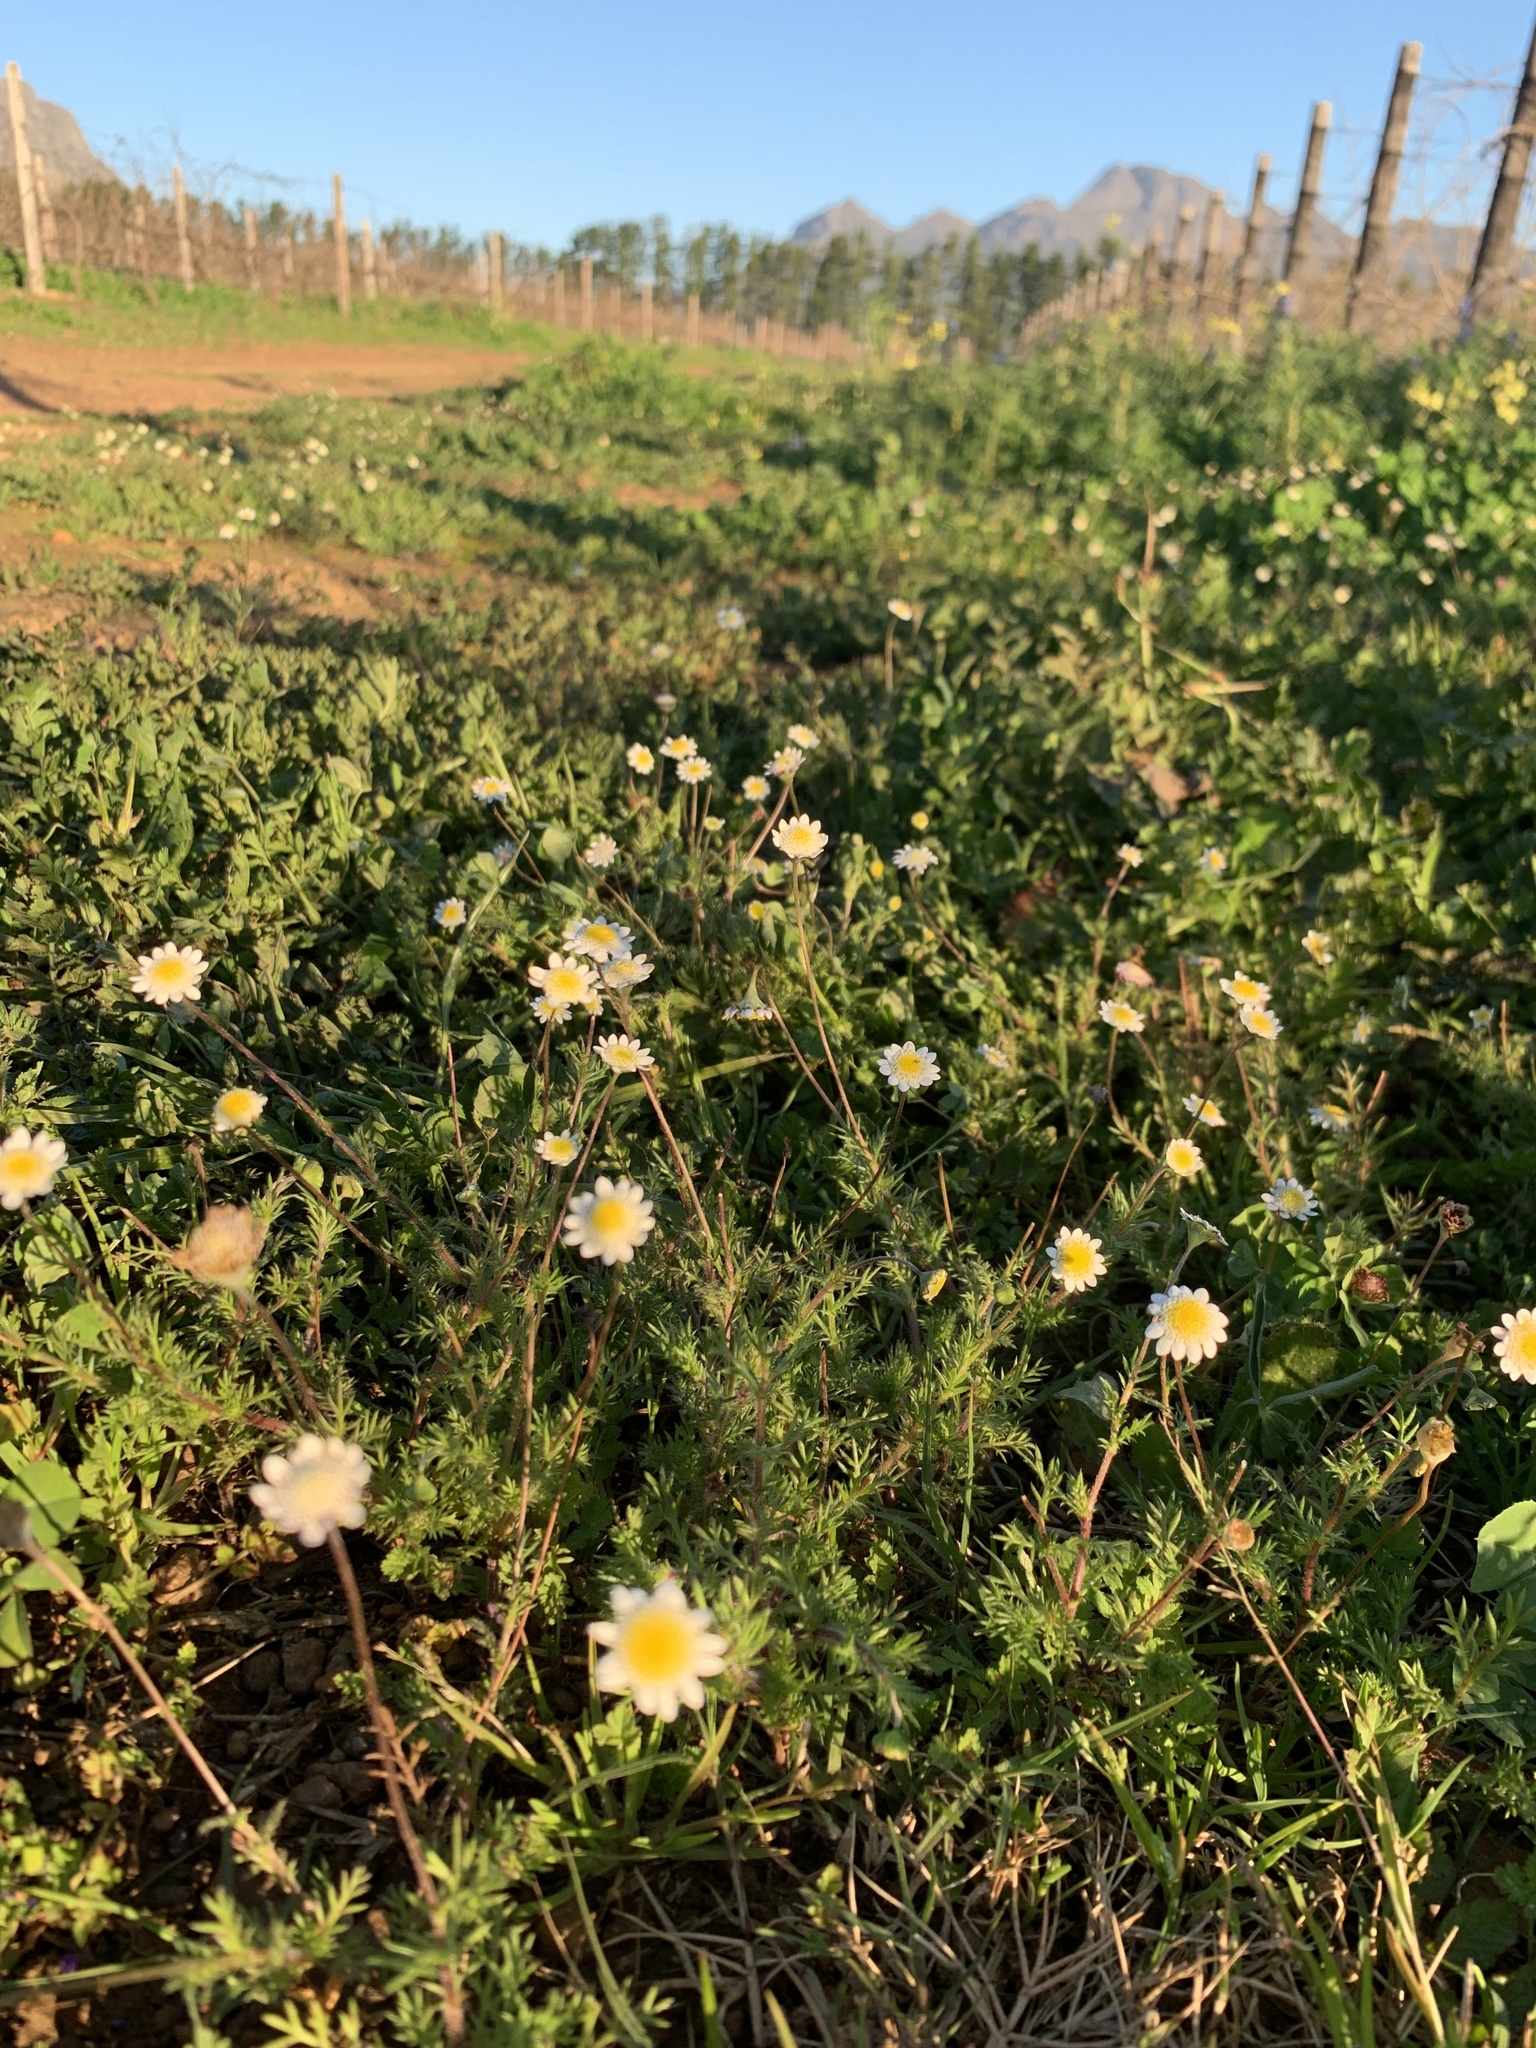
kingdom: Plantae
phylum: Tracheophyta
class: Magnoliopsida
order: Asterales
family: Asteraceae
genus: Cotula
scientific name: Cotula turbinata
